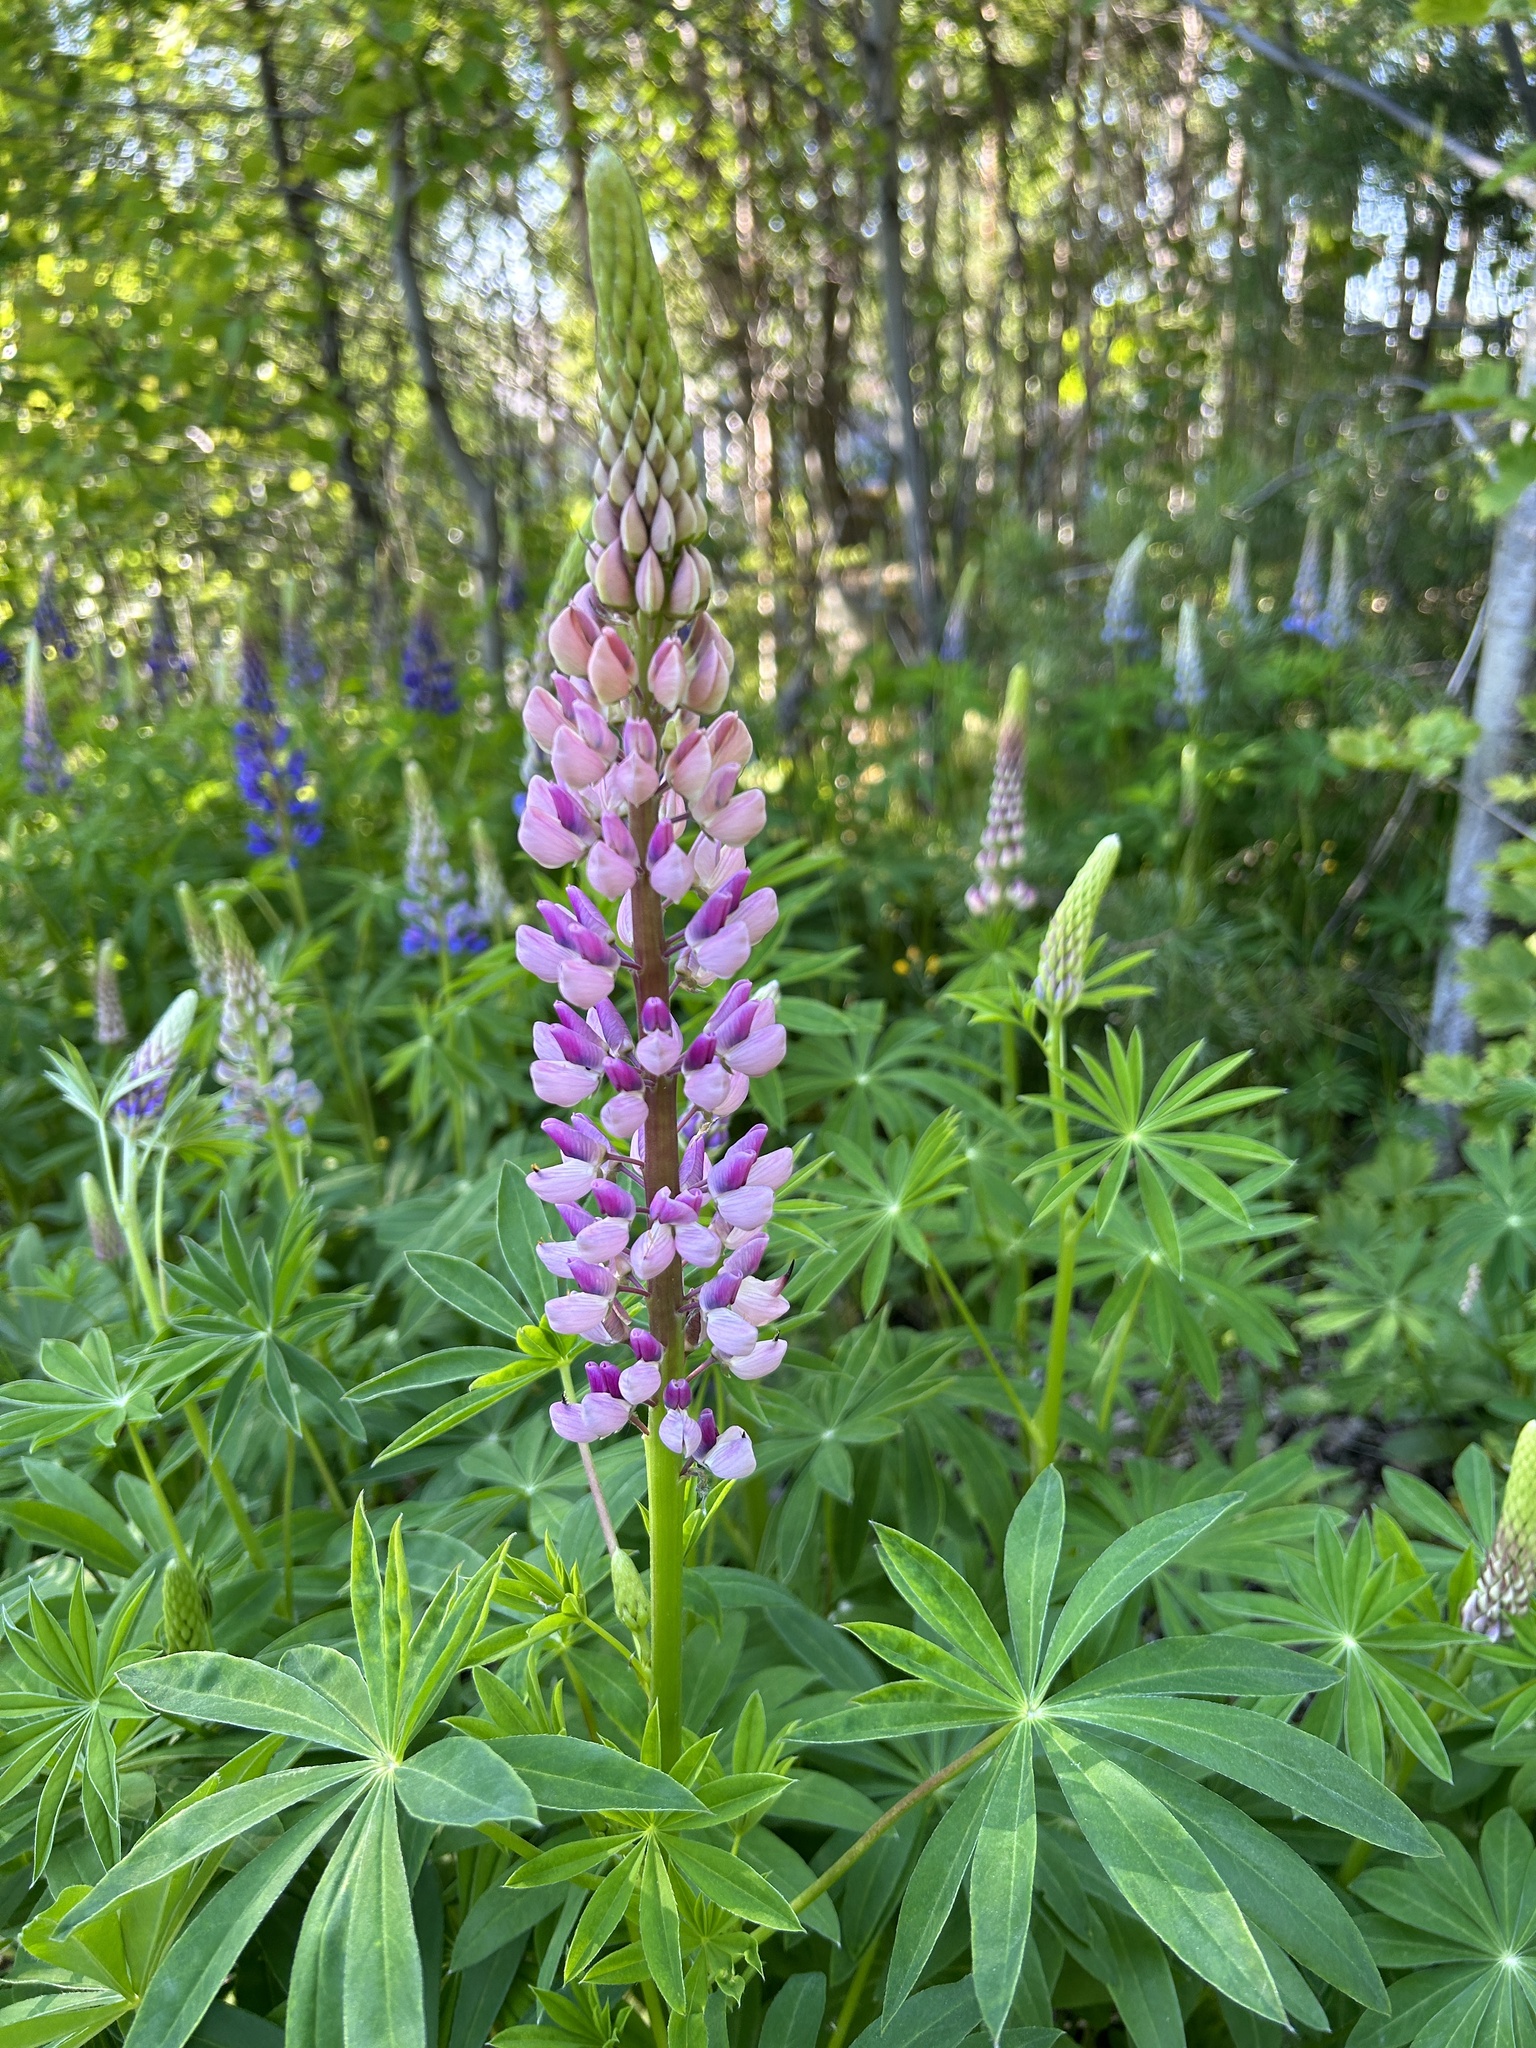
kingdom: Plantae
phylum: Tracheophyta
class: Magnoliopsida
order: Fabales
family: Fabaceae
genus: Lupinus
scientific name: Lupinus polyphyllus
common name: Garden lupin
